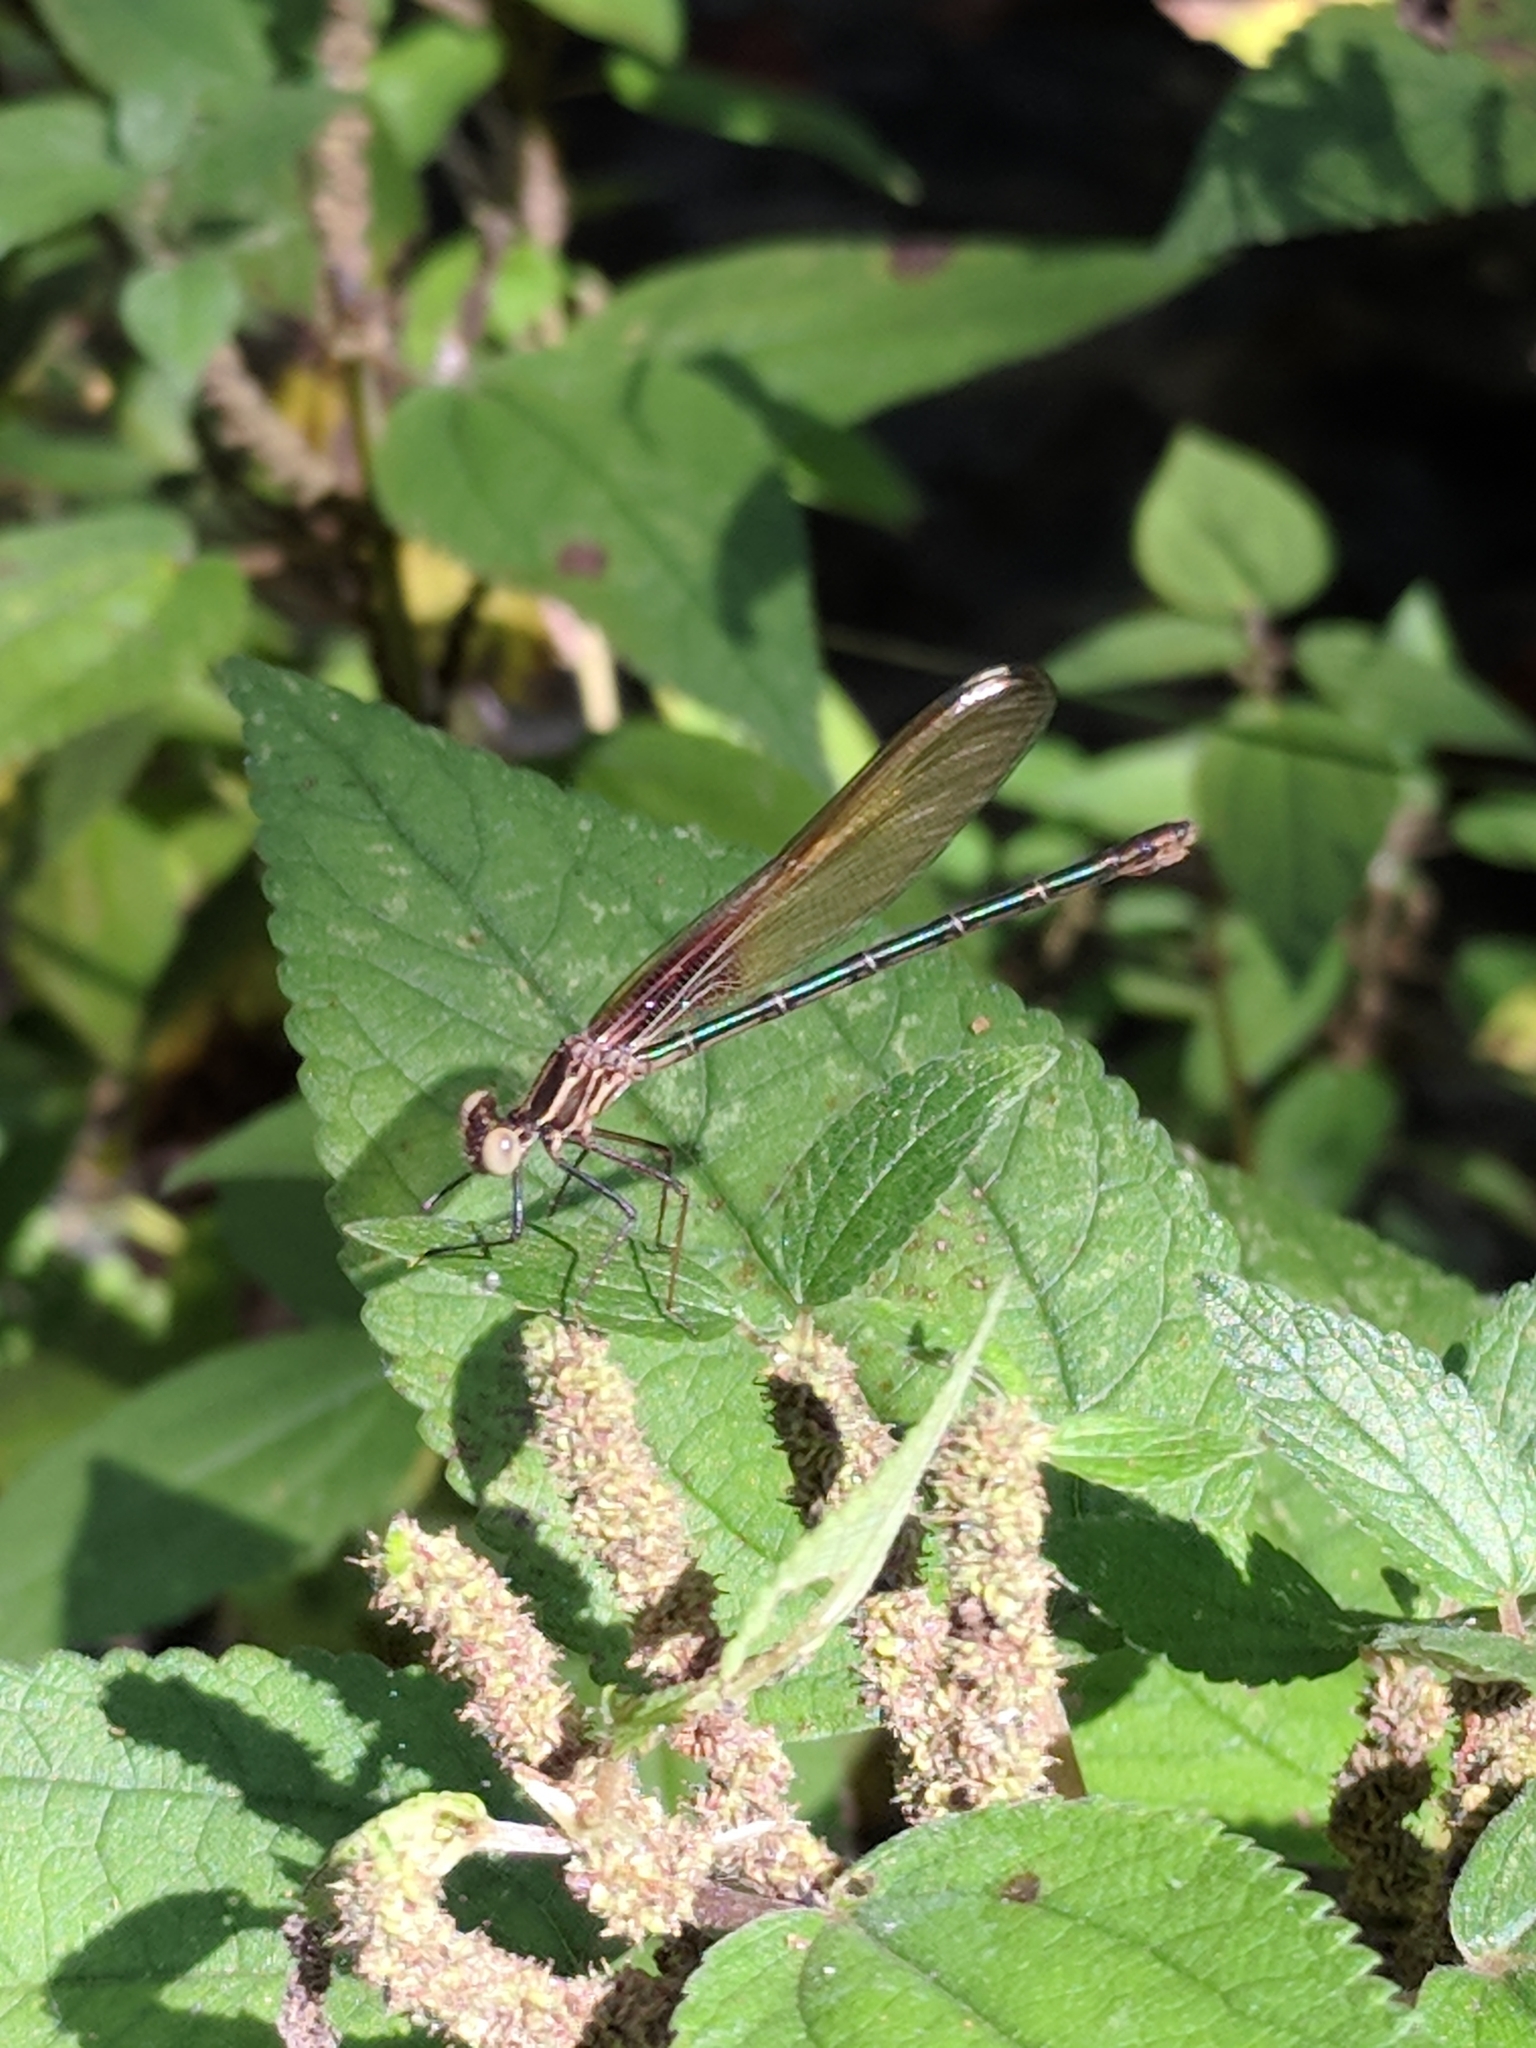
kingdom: Animalia
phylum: Arthropoda
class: Insecta
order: Odonata
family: Calopterygidae
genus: Hetaerina
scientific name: Hetaerina americana
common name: American rubyspot
